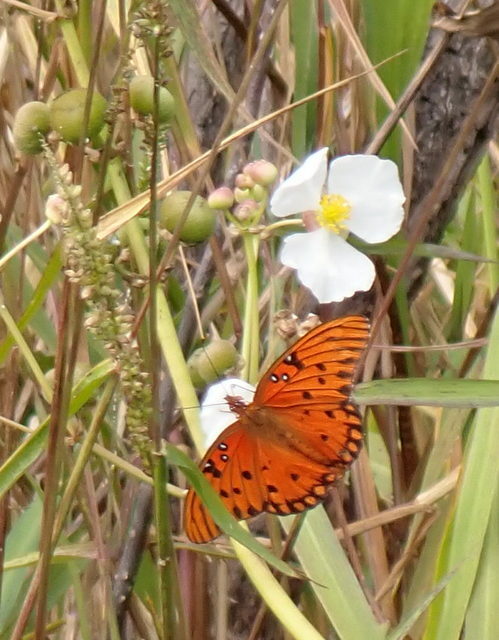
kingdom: Animalia
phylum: Arthropoda
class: Insecta
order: Lepidoptera
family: Nymphalidae
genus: Dione
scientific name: Dione vanillae
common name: Gulf fritillary
